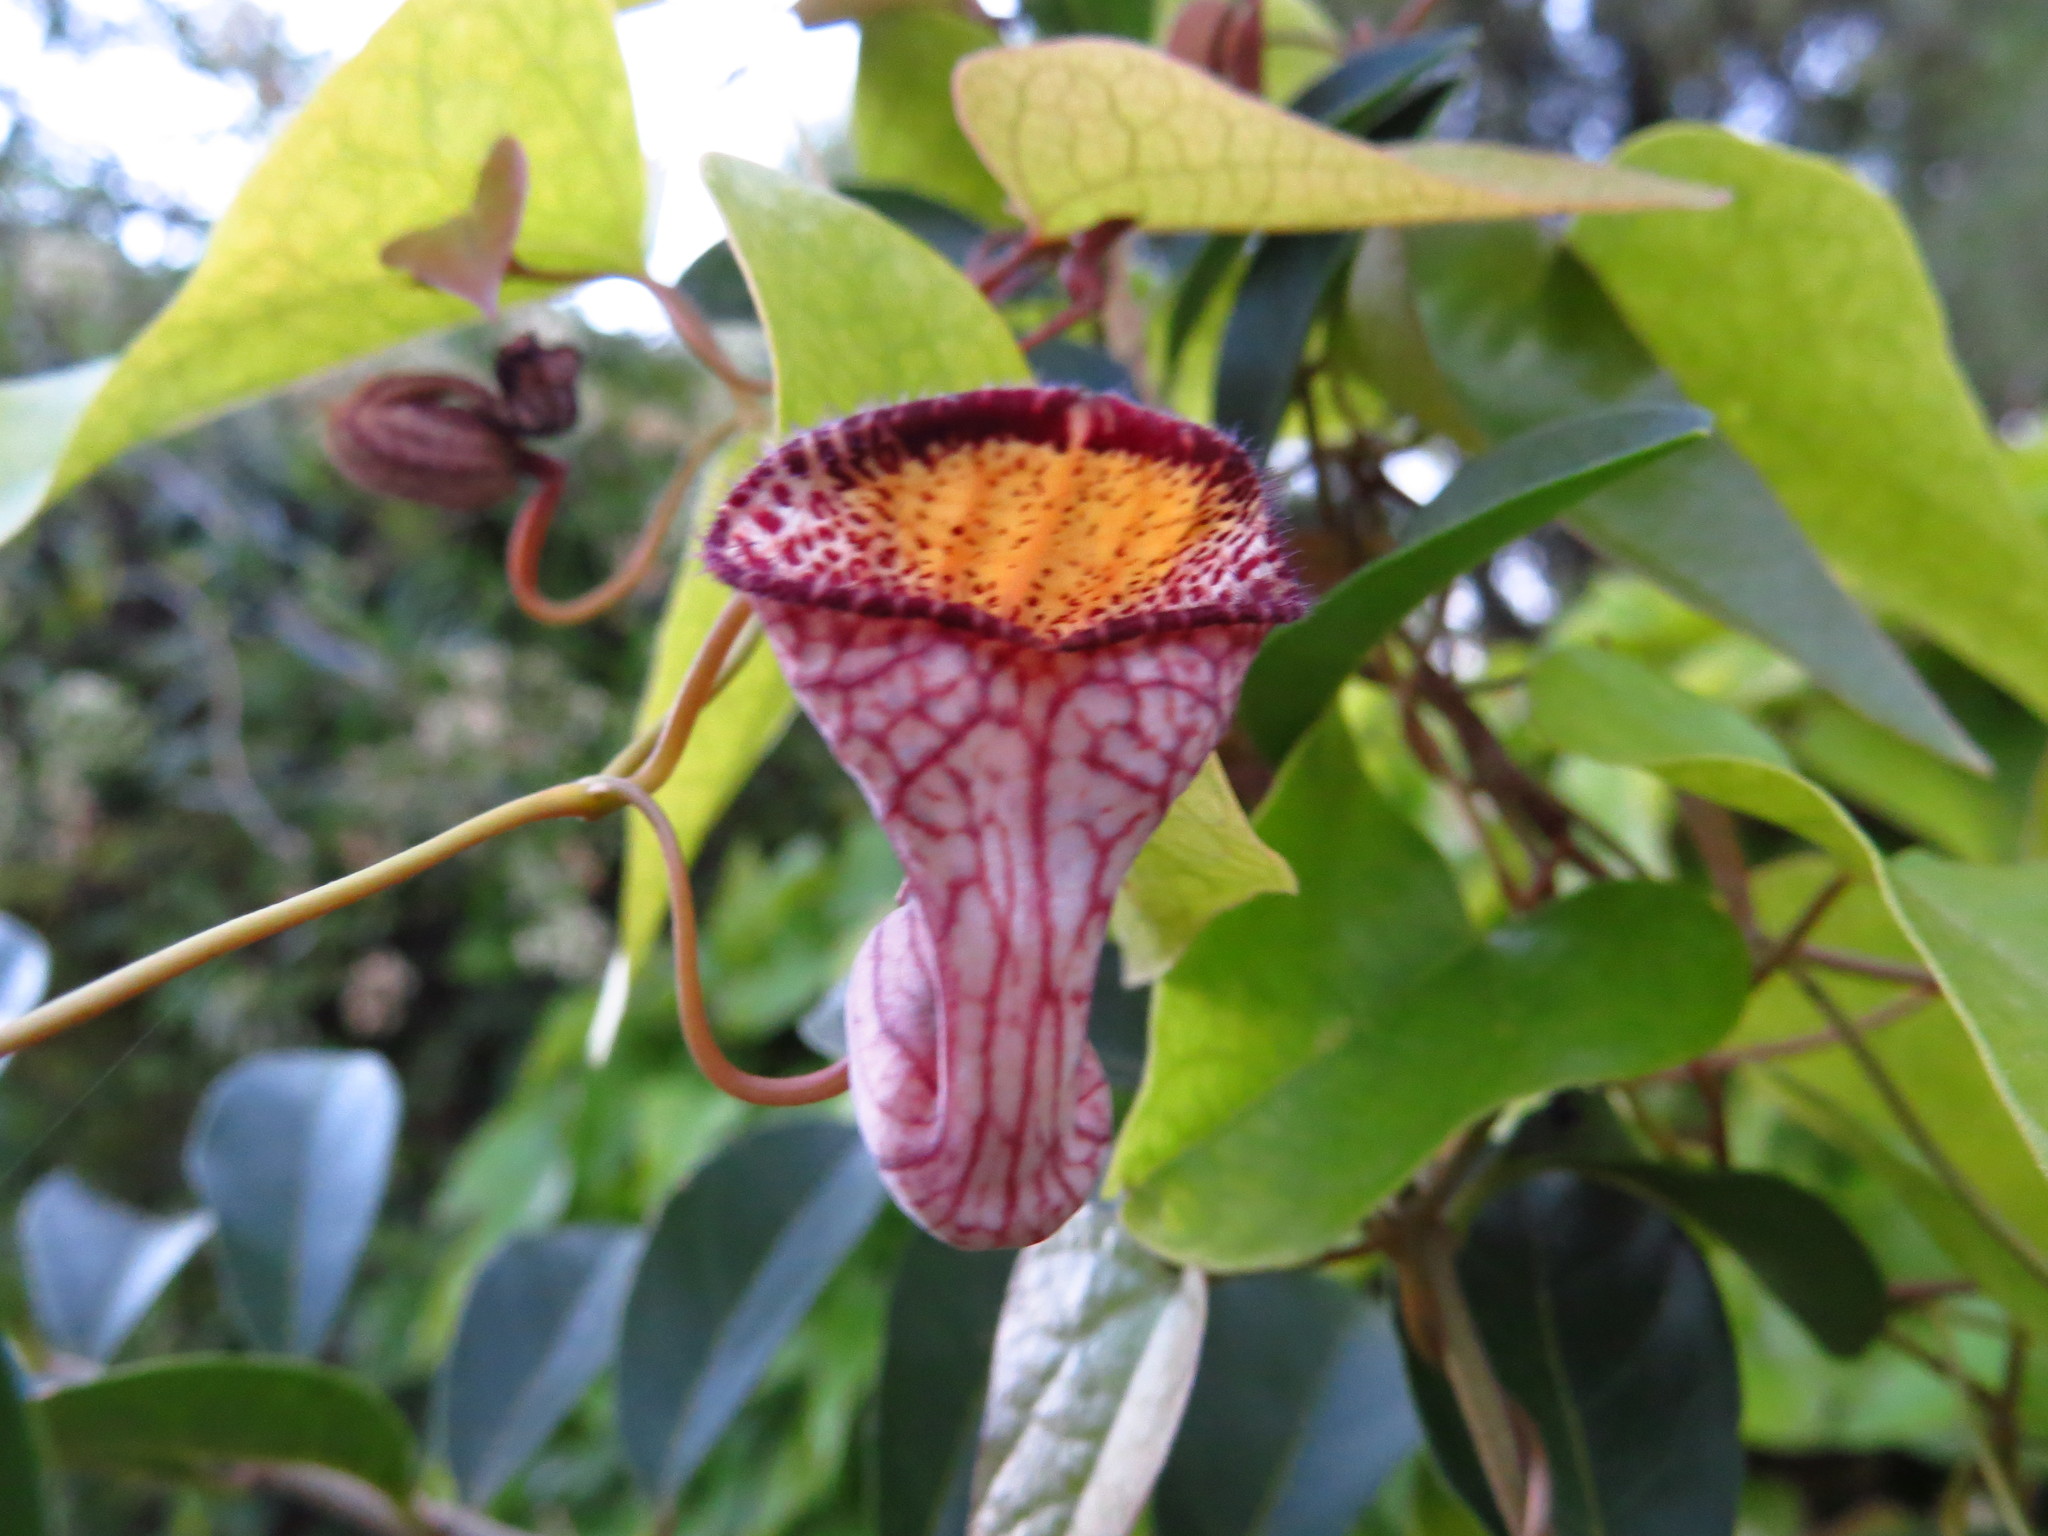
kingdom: Plantae
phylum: Tracheophyta
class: Magnoliopsida
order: Piperales
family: Aristolochiaceae
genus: Aristolochia
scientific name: Aristolochia triangularis
